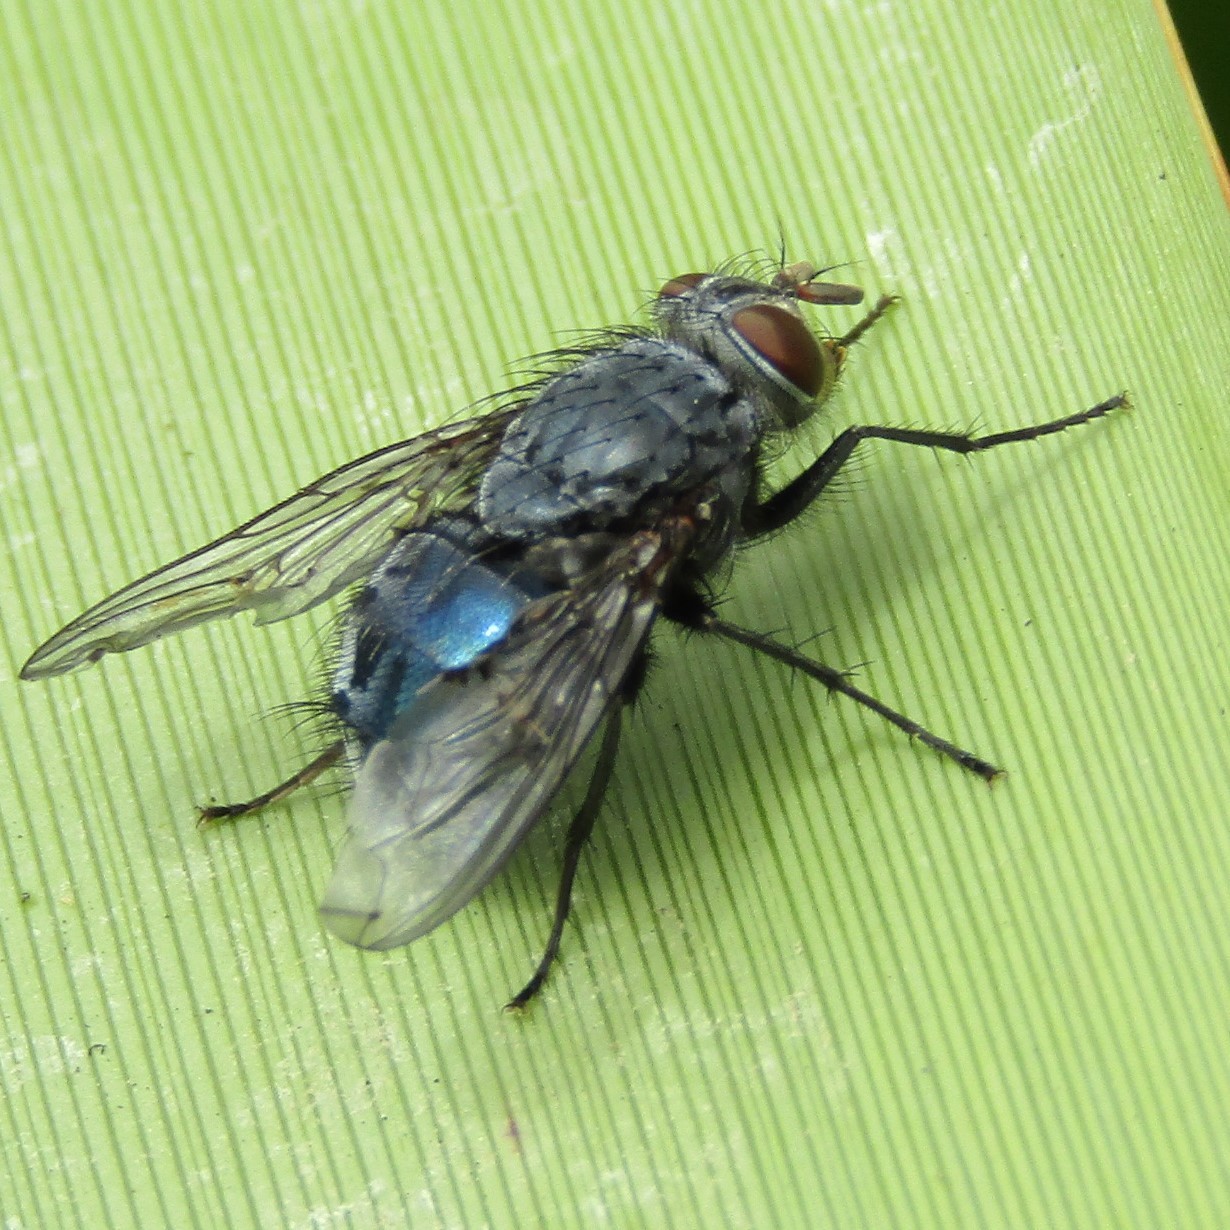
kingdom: Animalia
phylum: Arthropoda
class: Insecta
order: Diptera
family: Calliphoridae
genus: Calliphora
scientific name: Calliphora vicina
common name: Common blow flie
